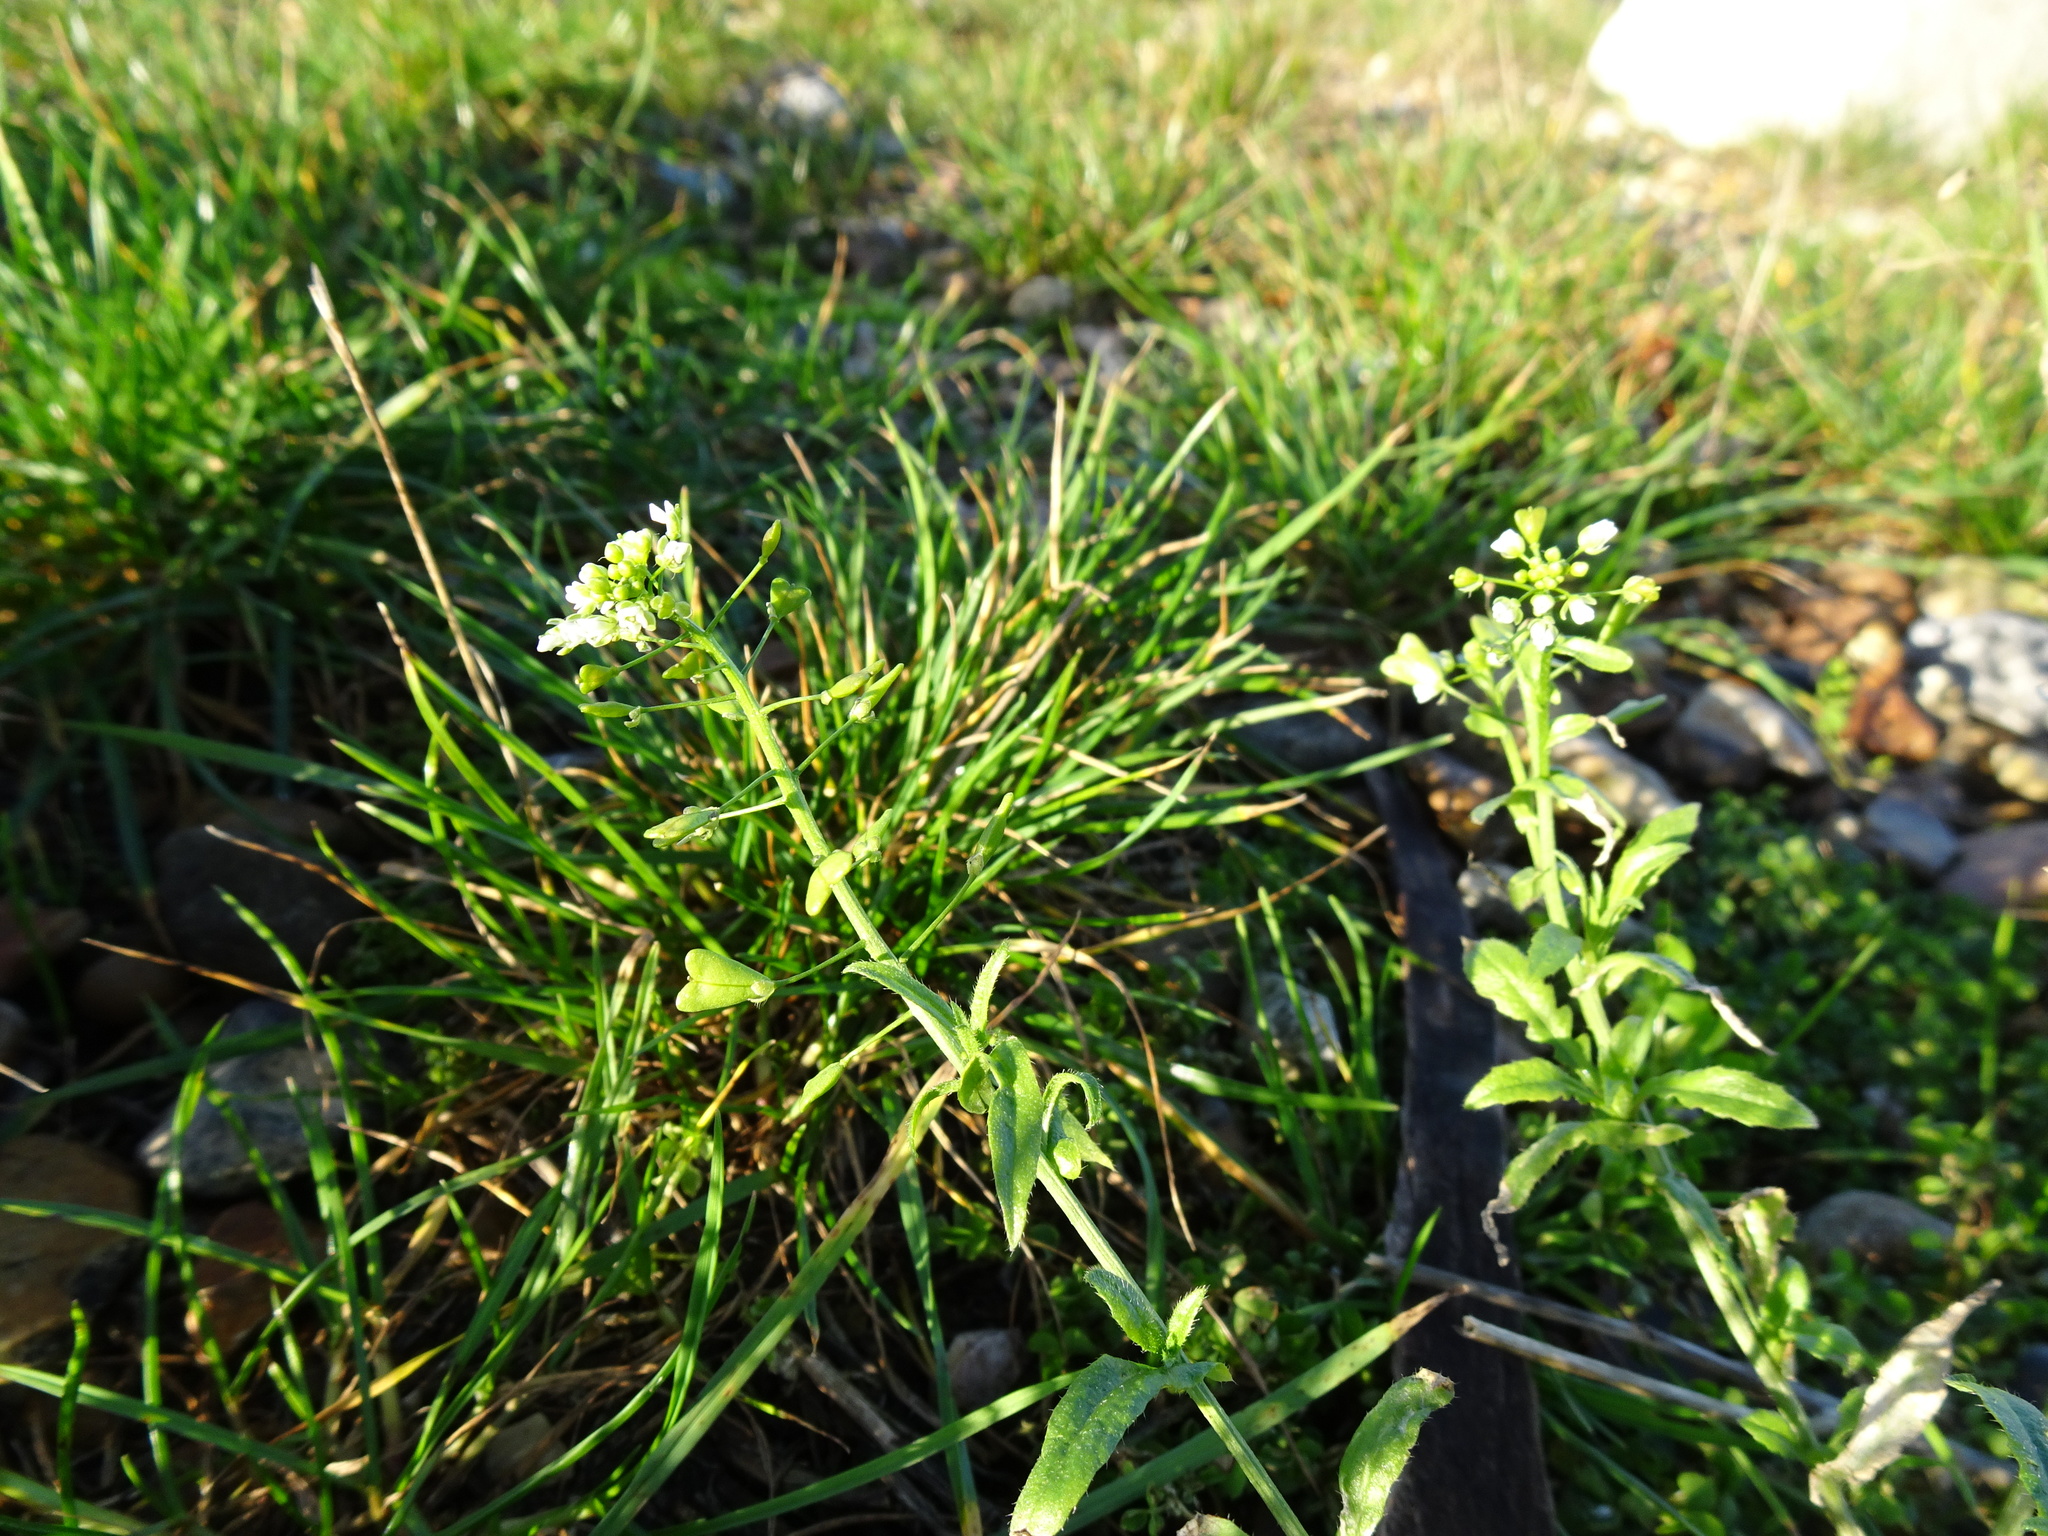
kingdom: Plantae
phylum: Tracheophyta
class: Magnoliopsida
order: Brassicales
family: Brassicaceae
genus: Capsella
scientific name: Capsella bursa-pastoris
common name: Shepherd's purse
